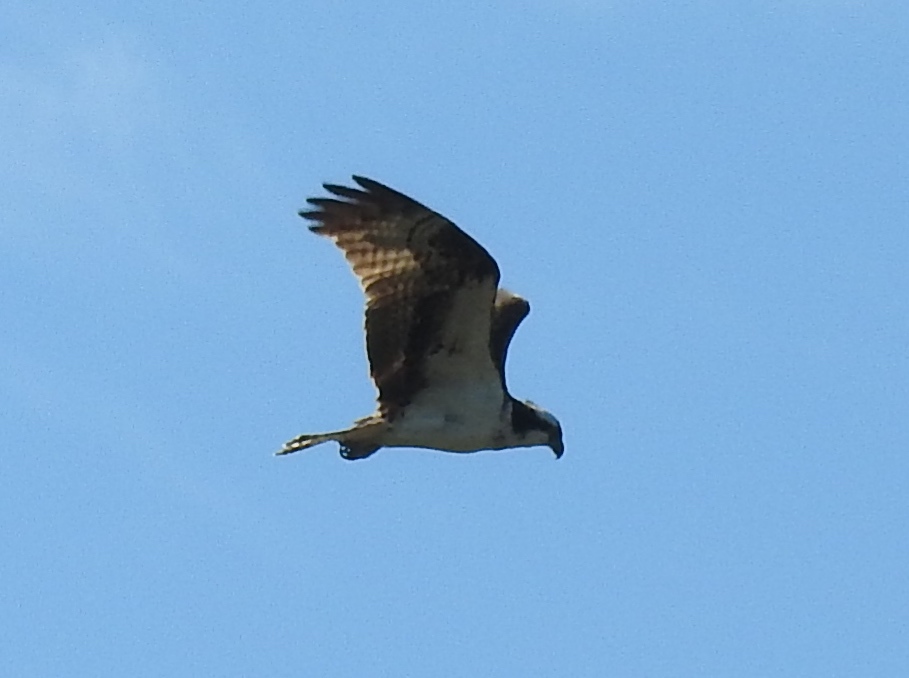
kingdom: Animalia
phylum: Chordata
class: Aves
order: Accipitriformes
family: Pandionidae
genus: Pandion
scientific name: Pandion haliaetus
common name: Osprey
